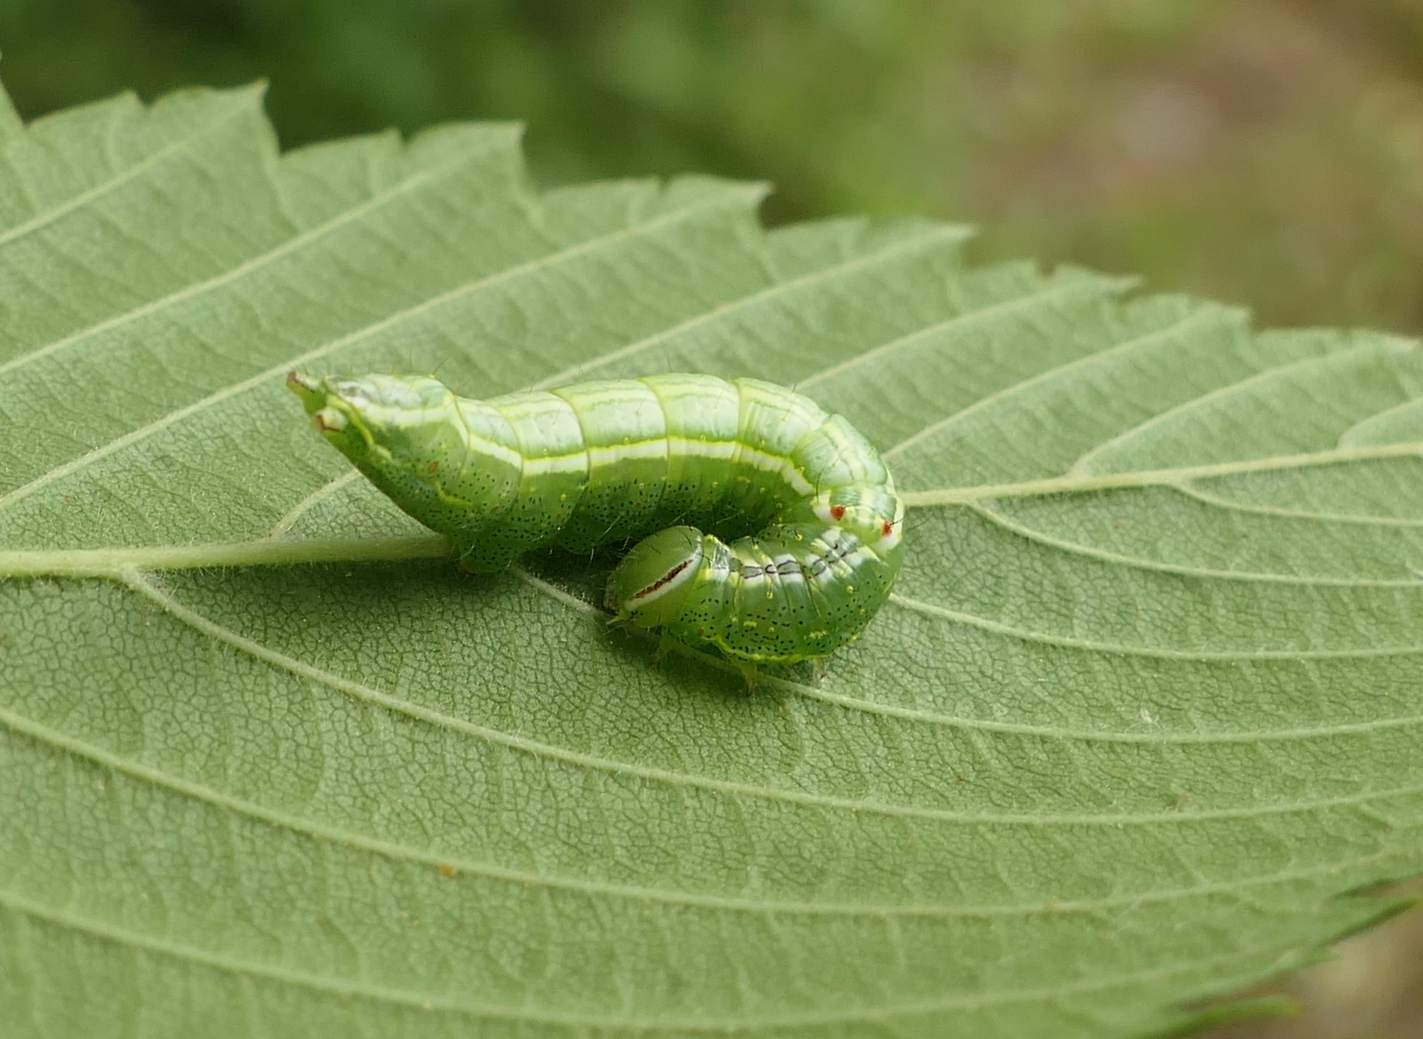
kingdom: Animalia
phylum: Arthropoda
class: Insecta
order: Lepidoptera
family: Notodontidae
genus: Lochmaeus
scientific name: Lochmaeus bilineata
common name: Double-lined prominent
